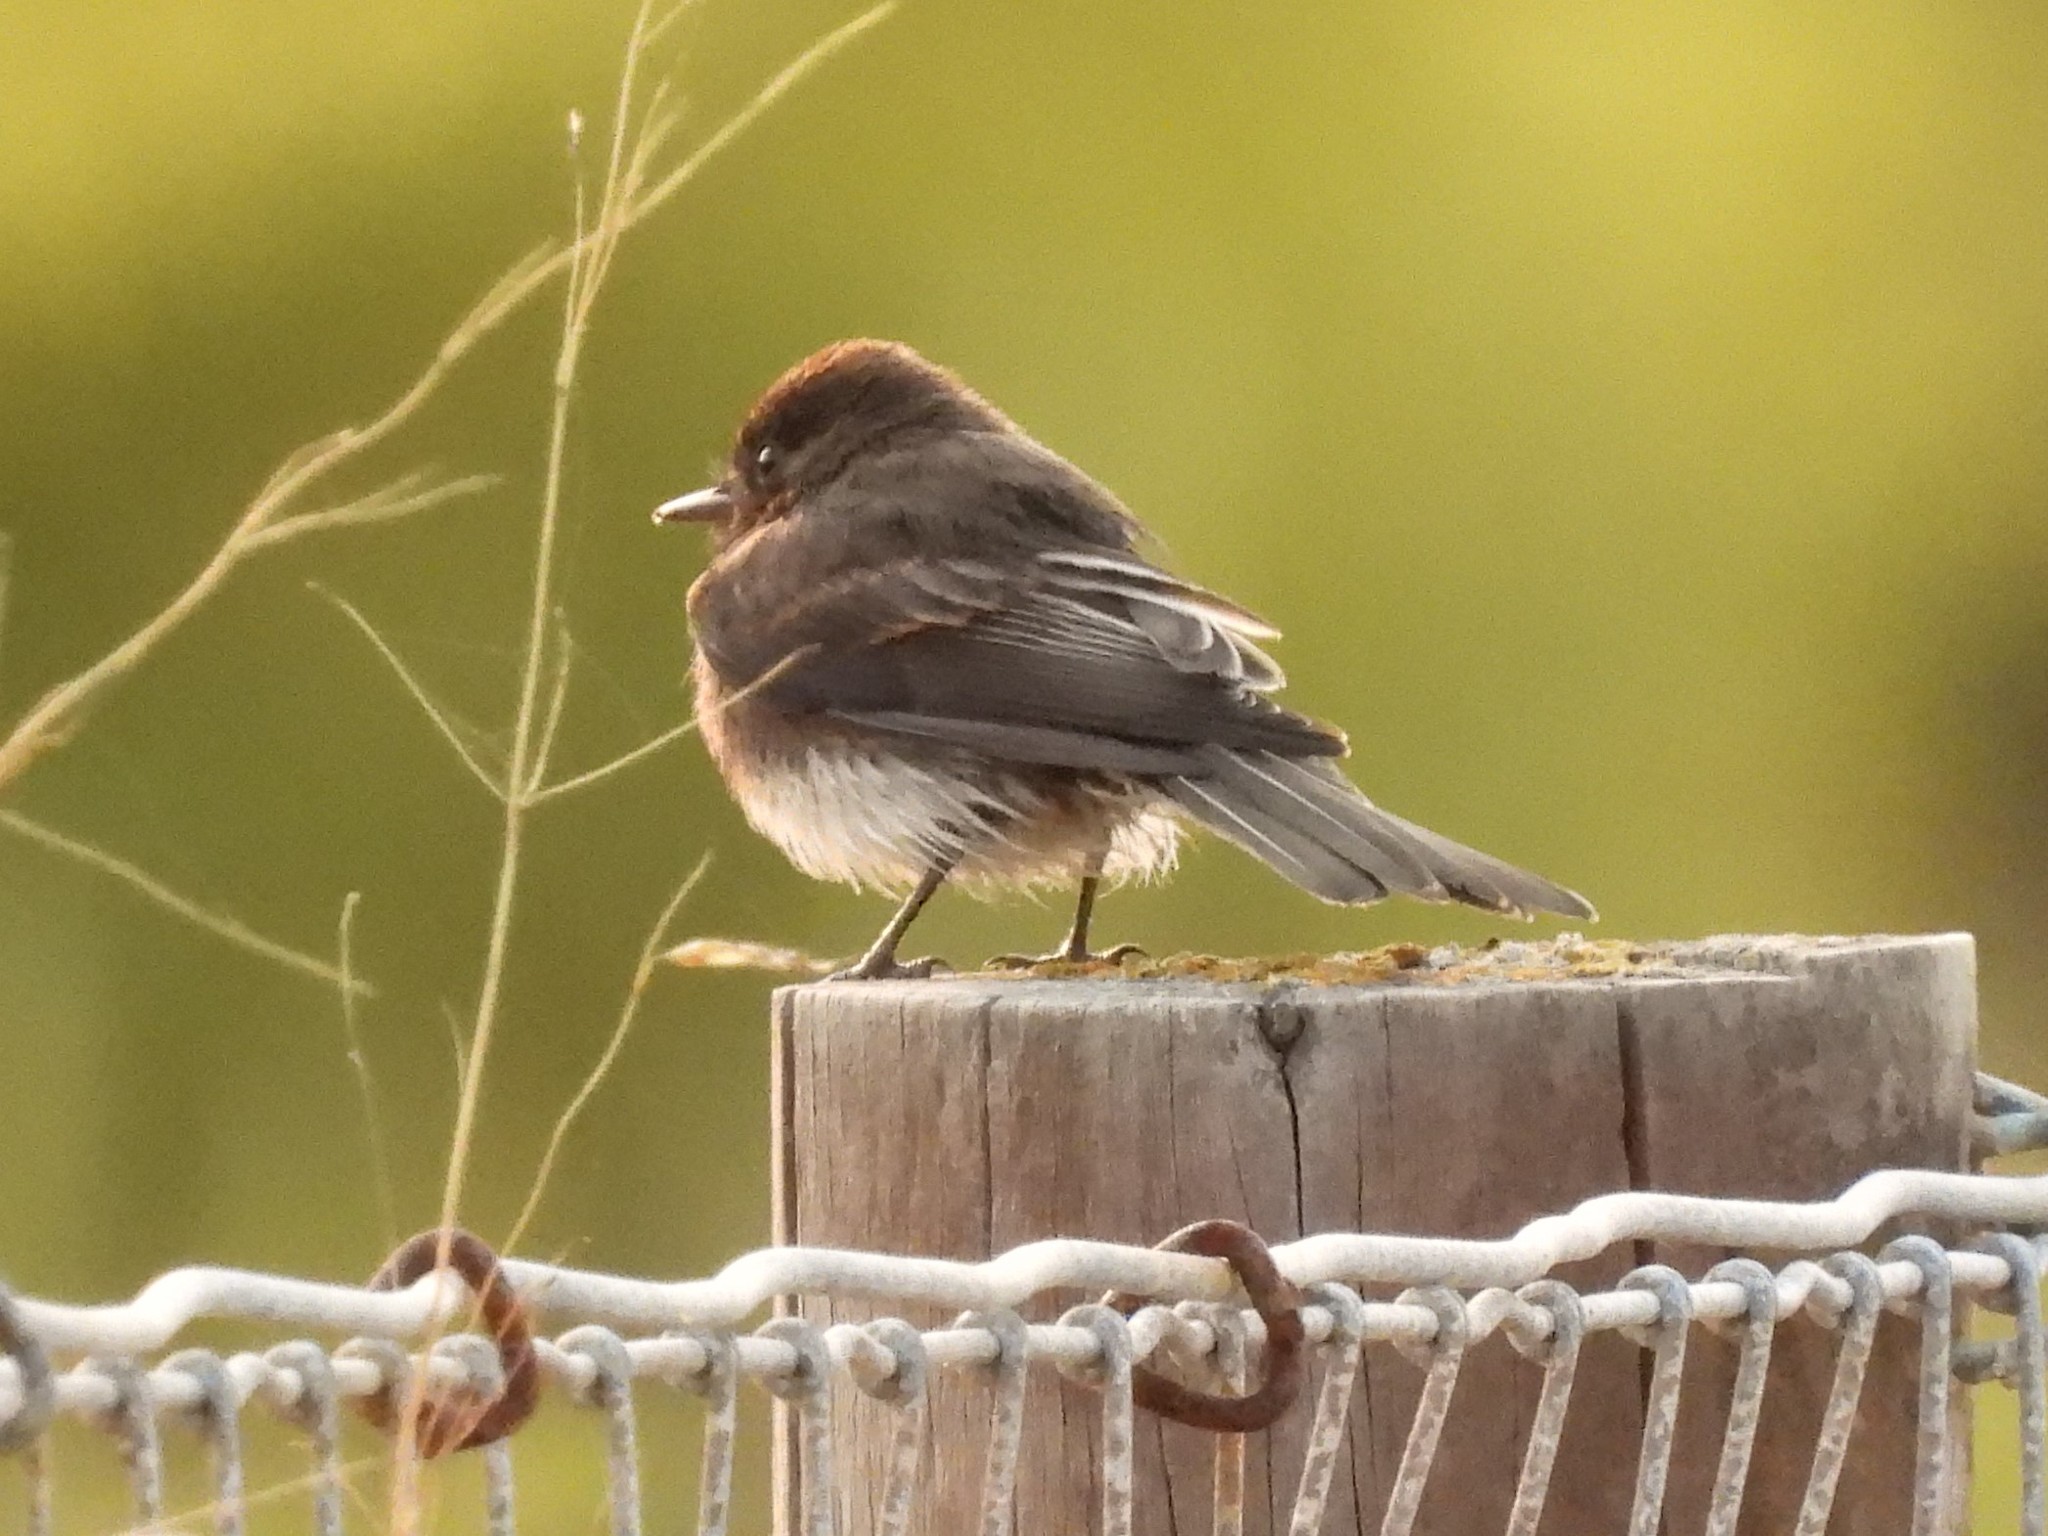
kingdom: Animalia
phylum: Chordata
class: Aves
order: Passeriformes
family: Tyrannidae
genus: Sayornis
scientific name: Sayornis nigricans
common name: Black phoebe
